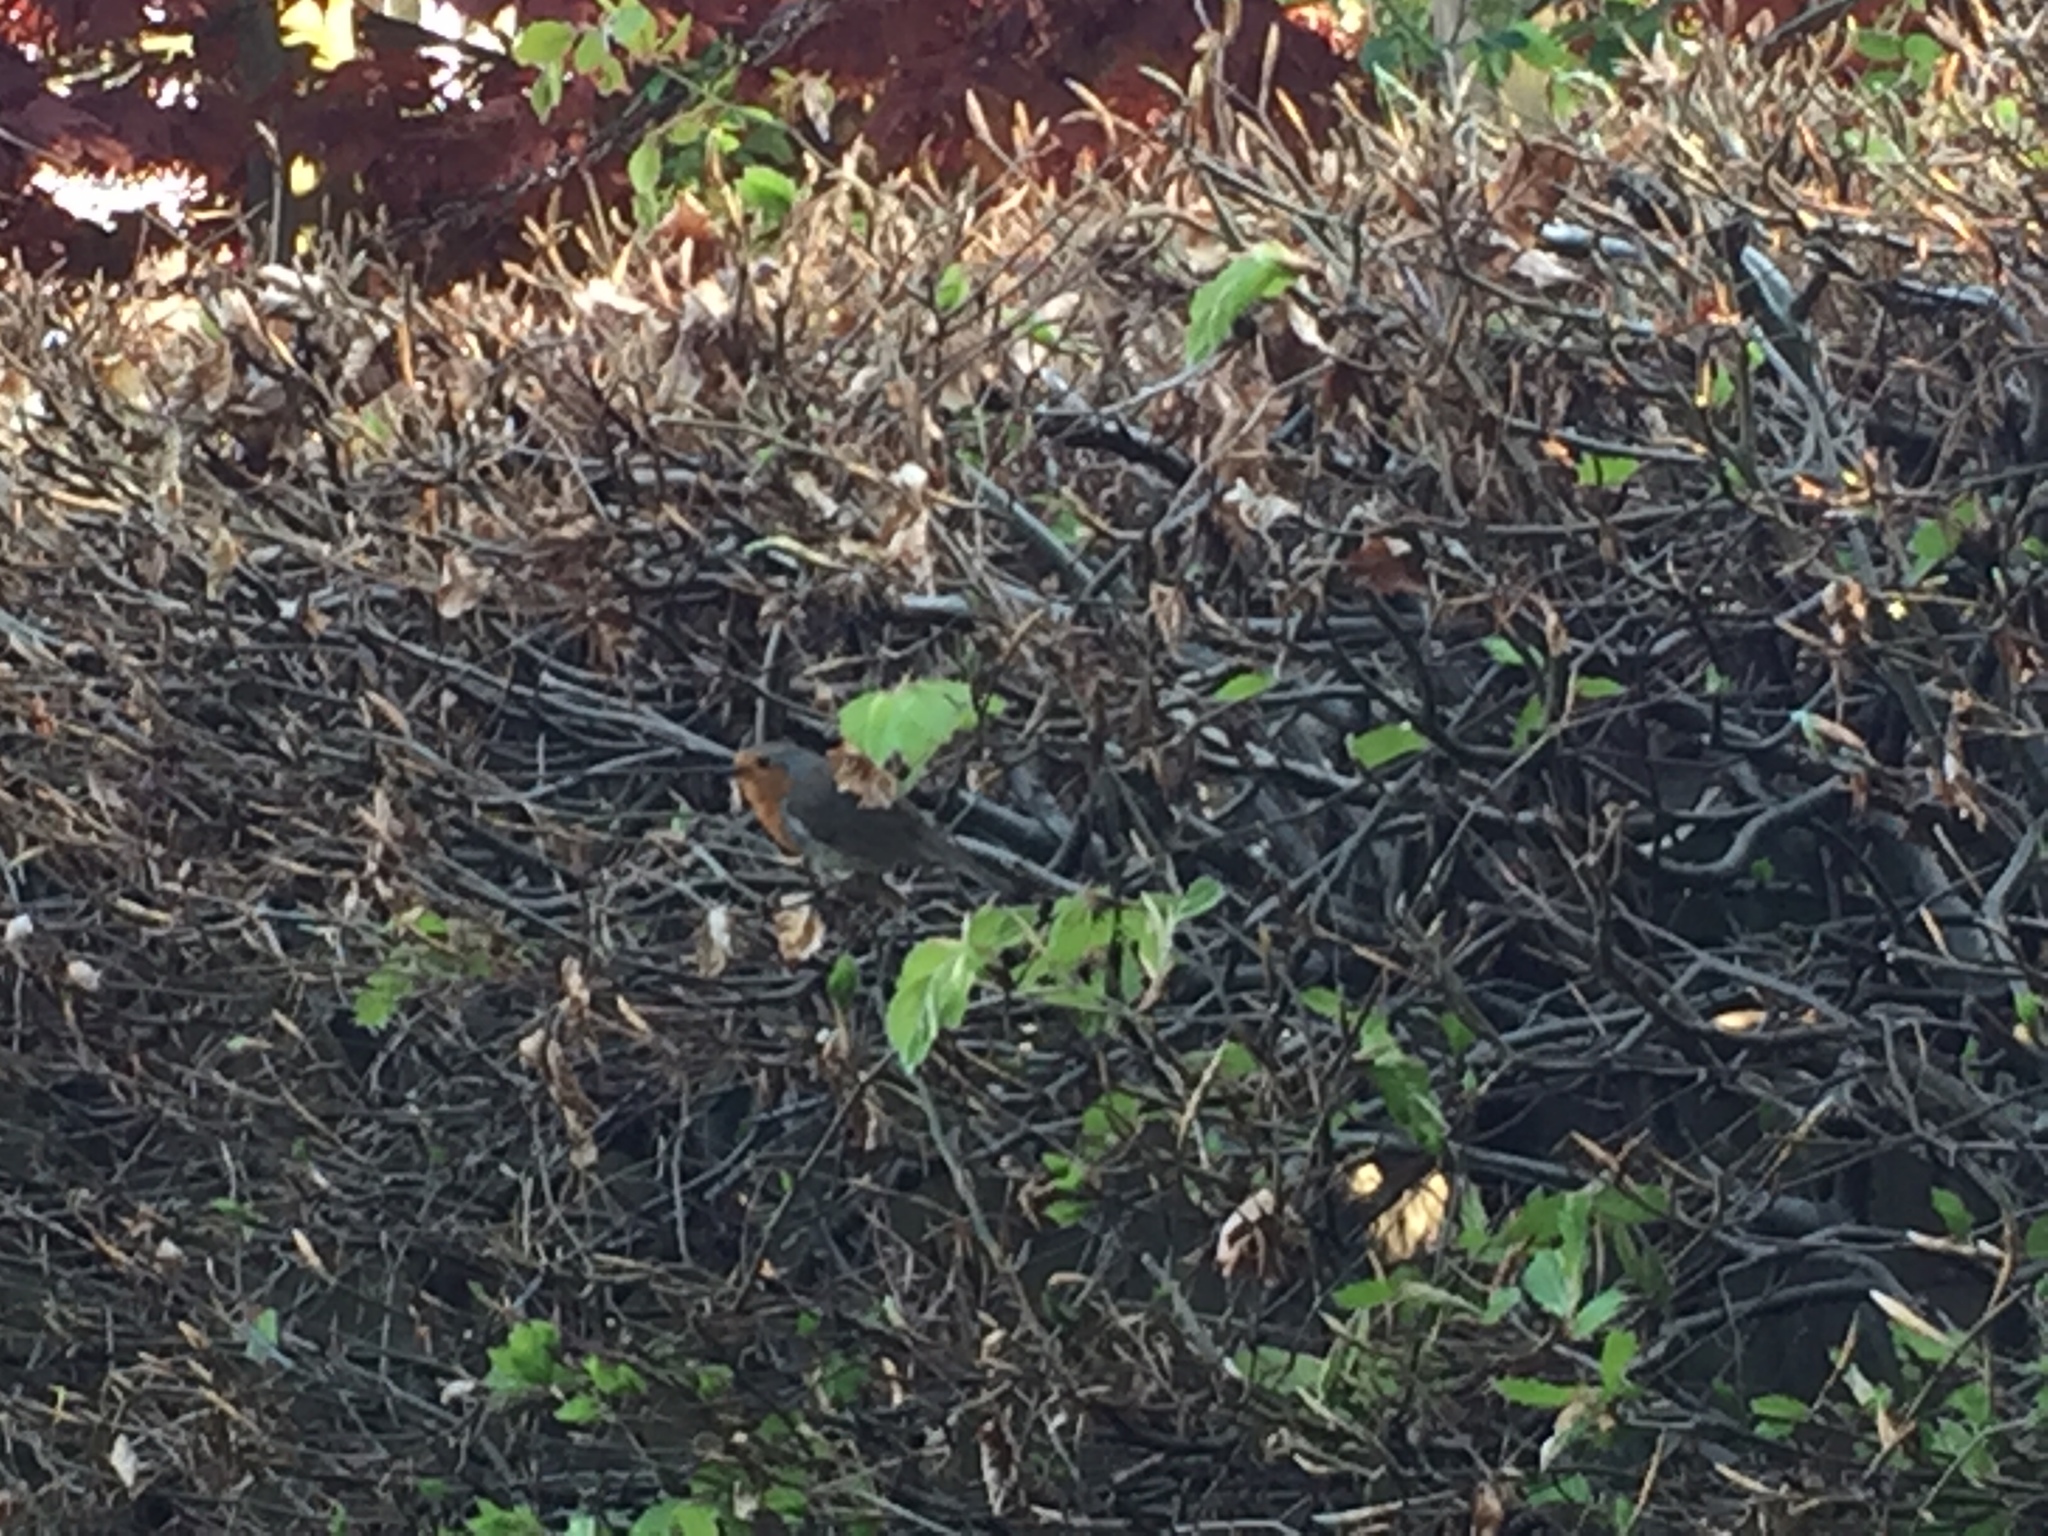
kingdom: Animalia
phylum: Chordata
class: Aves
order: Passeriformes
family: Muscicapidae
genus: Erithacus
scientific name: Erithacus rubecula
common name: European robin
